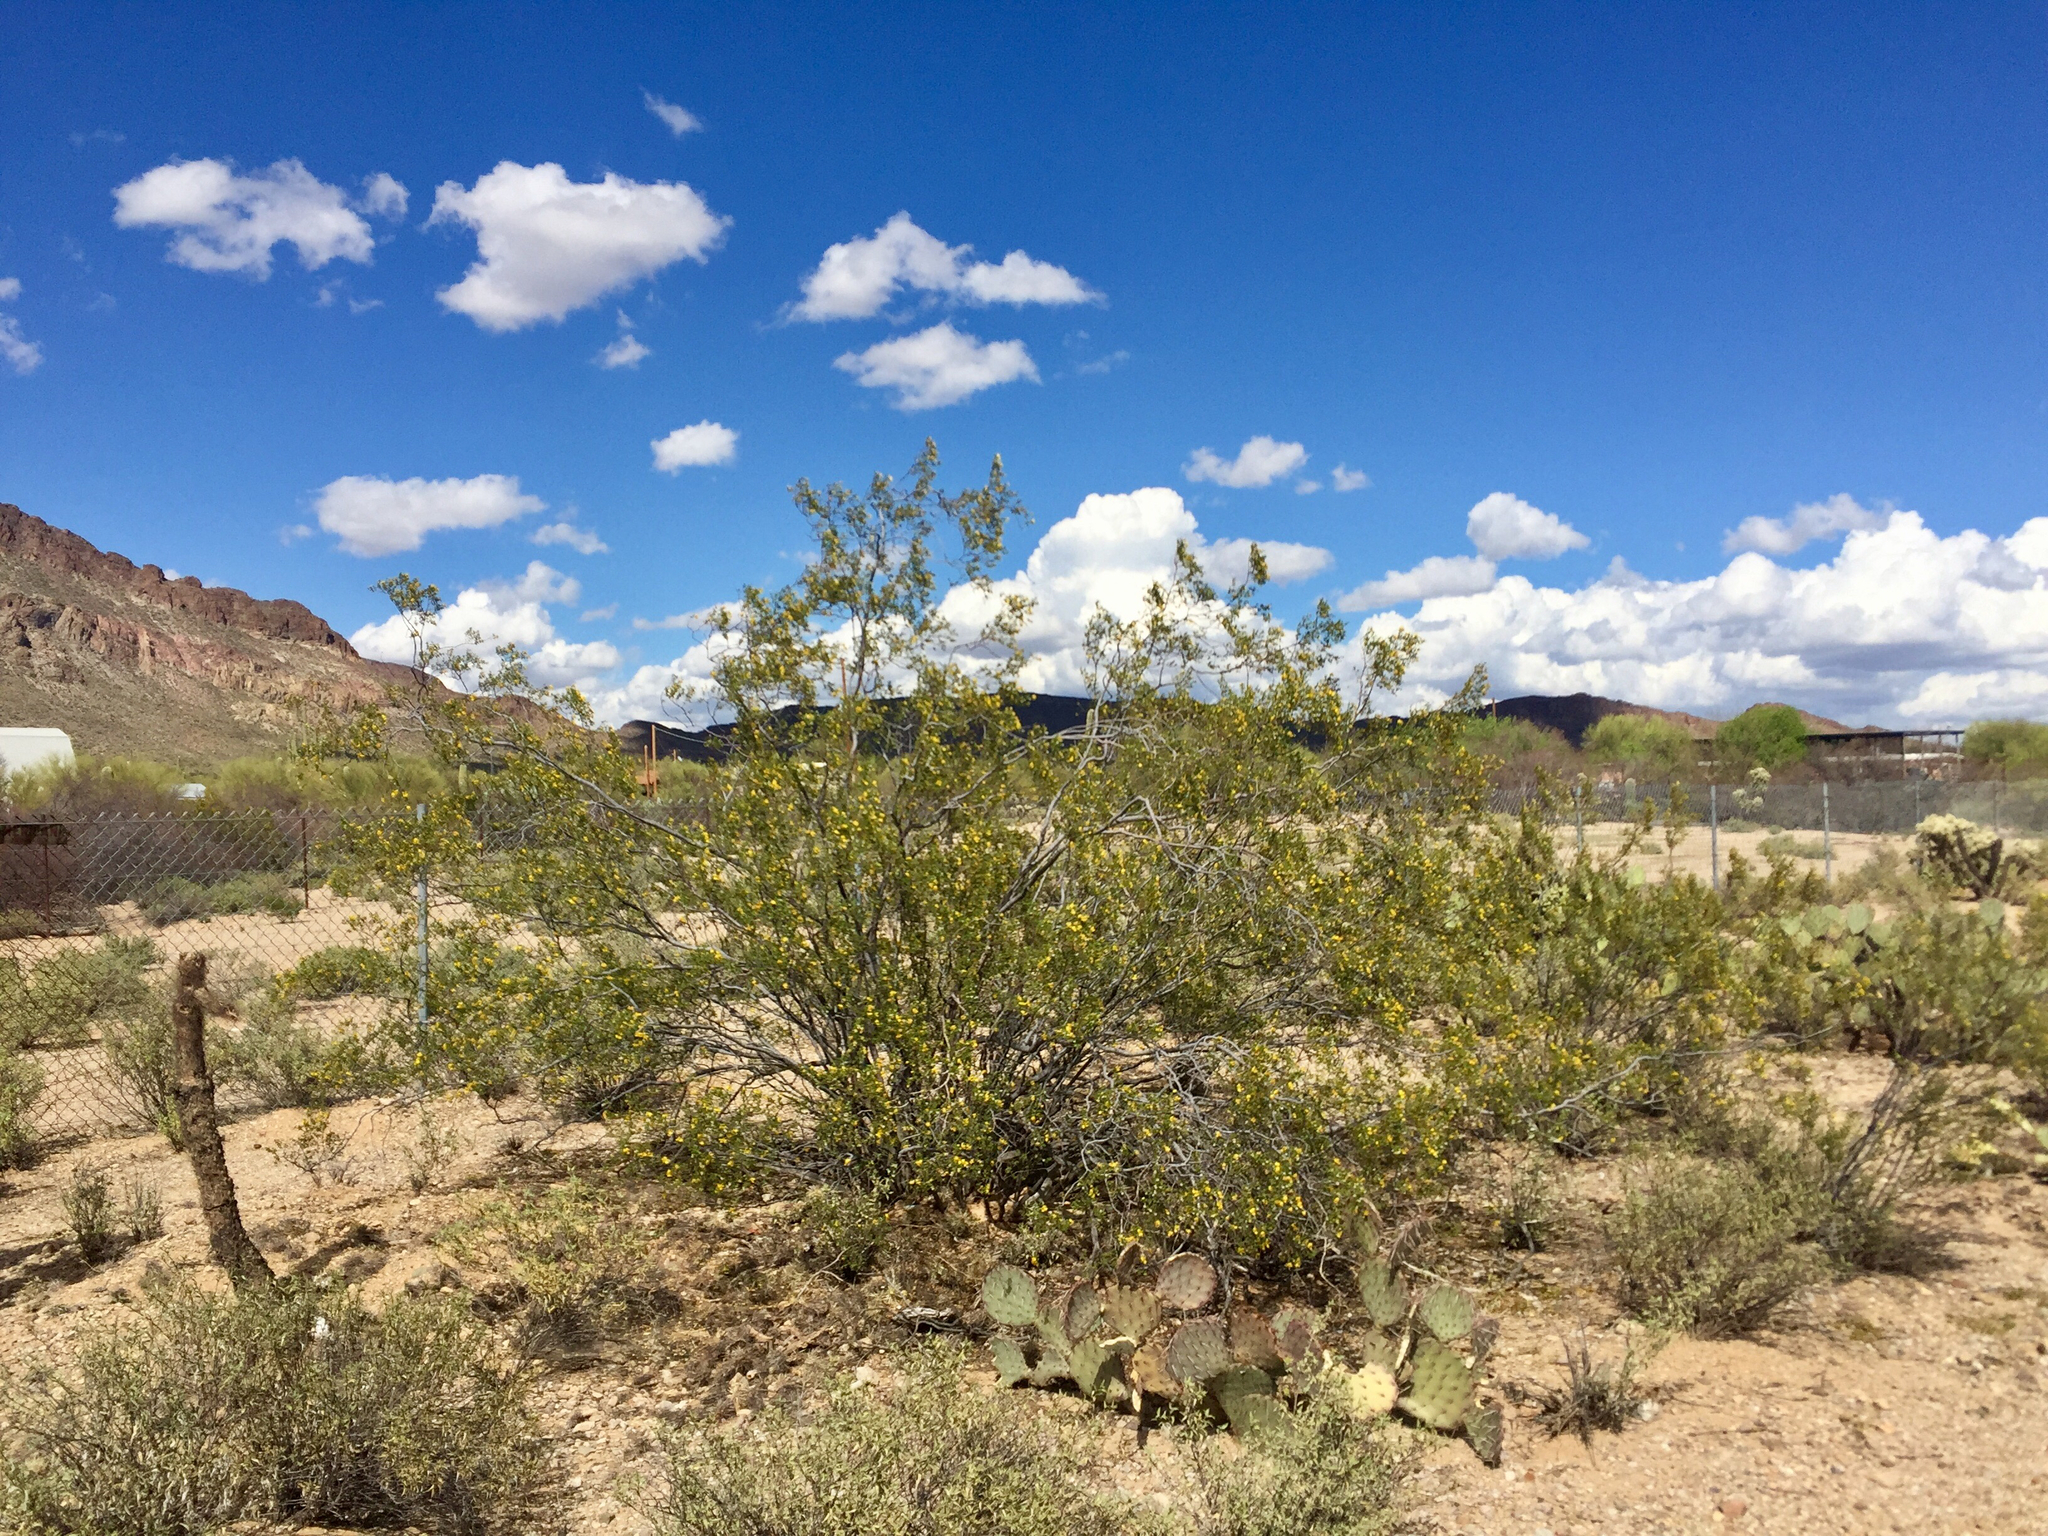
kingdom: Plantae
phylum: Tracheophyta
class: Magnoliopsida
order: Zygophyllales
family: Zygophyllaceae
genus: Larrea
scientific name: Larrea tridentata
